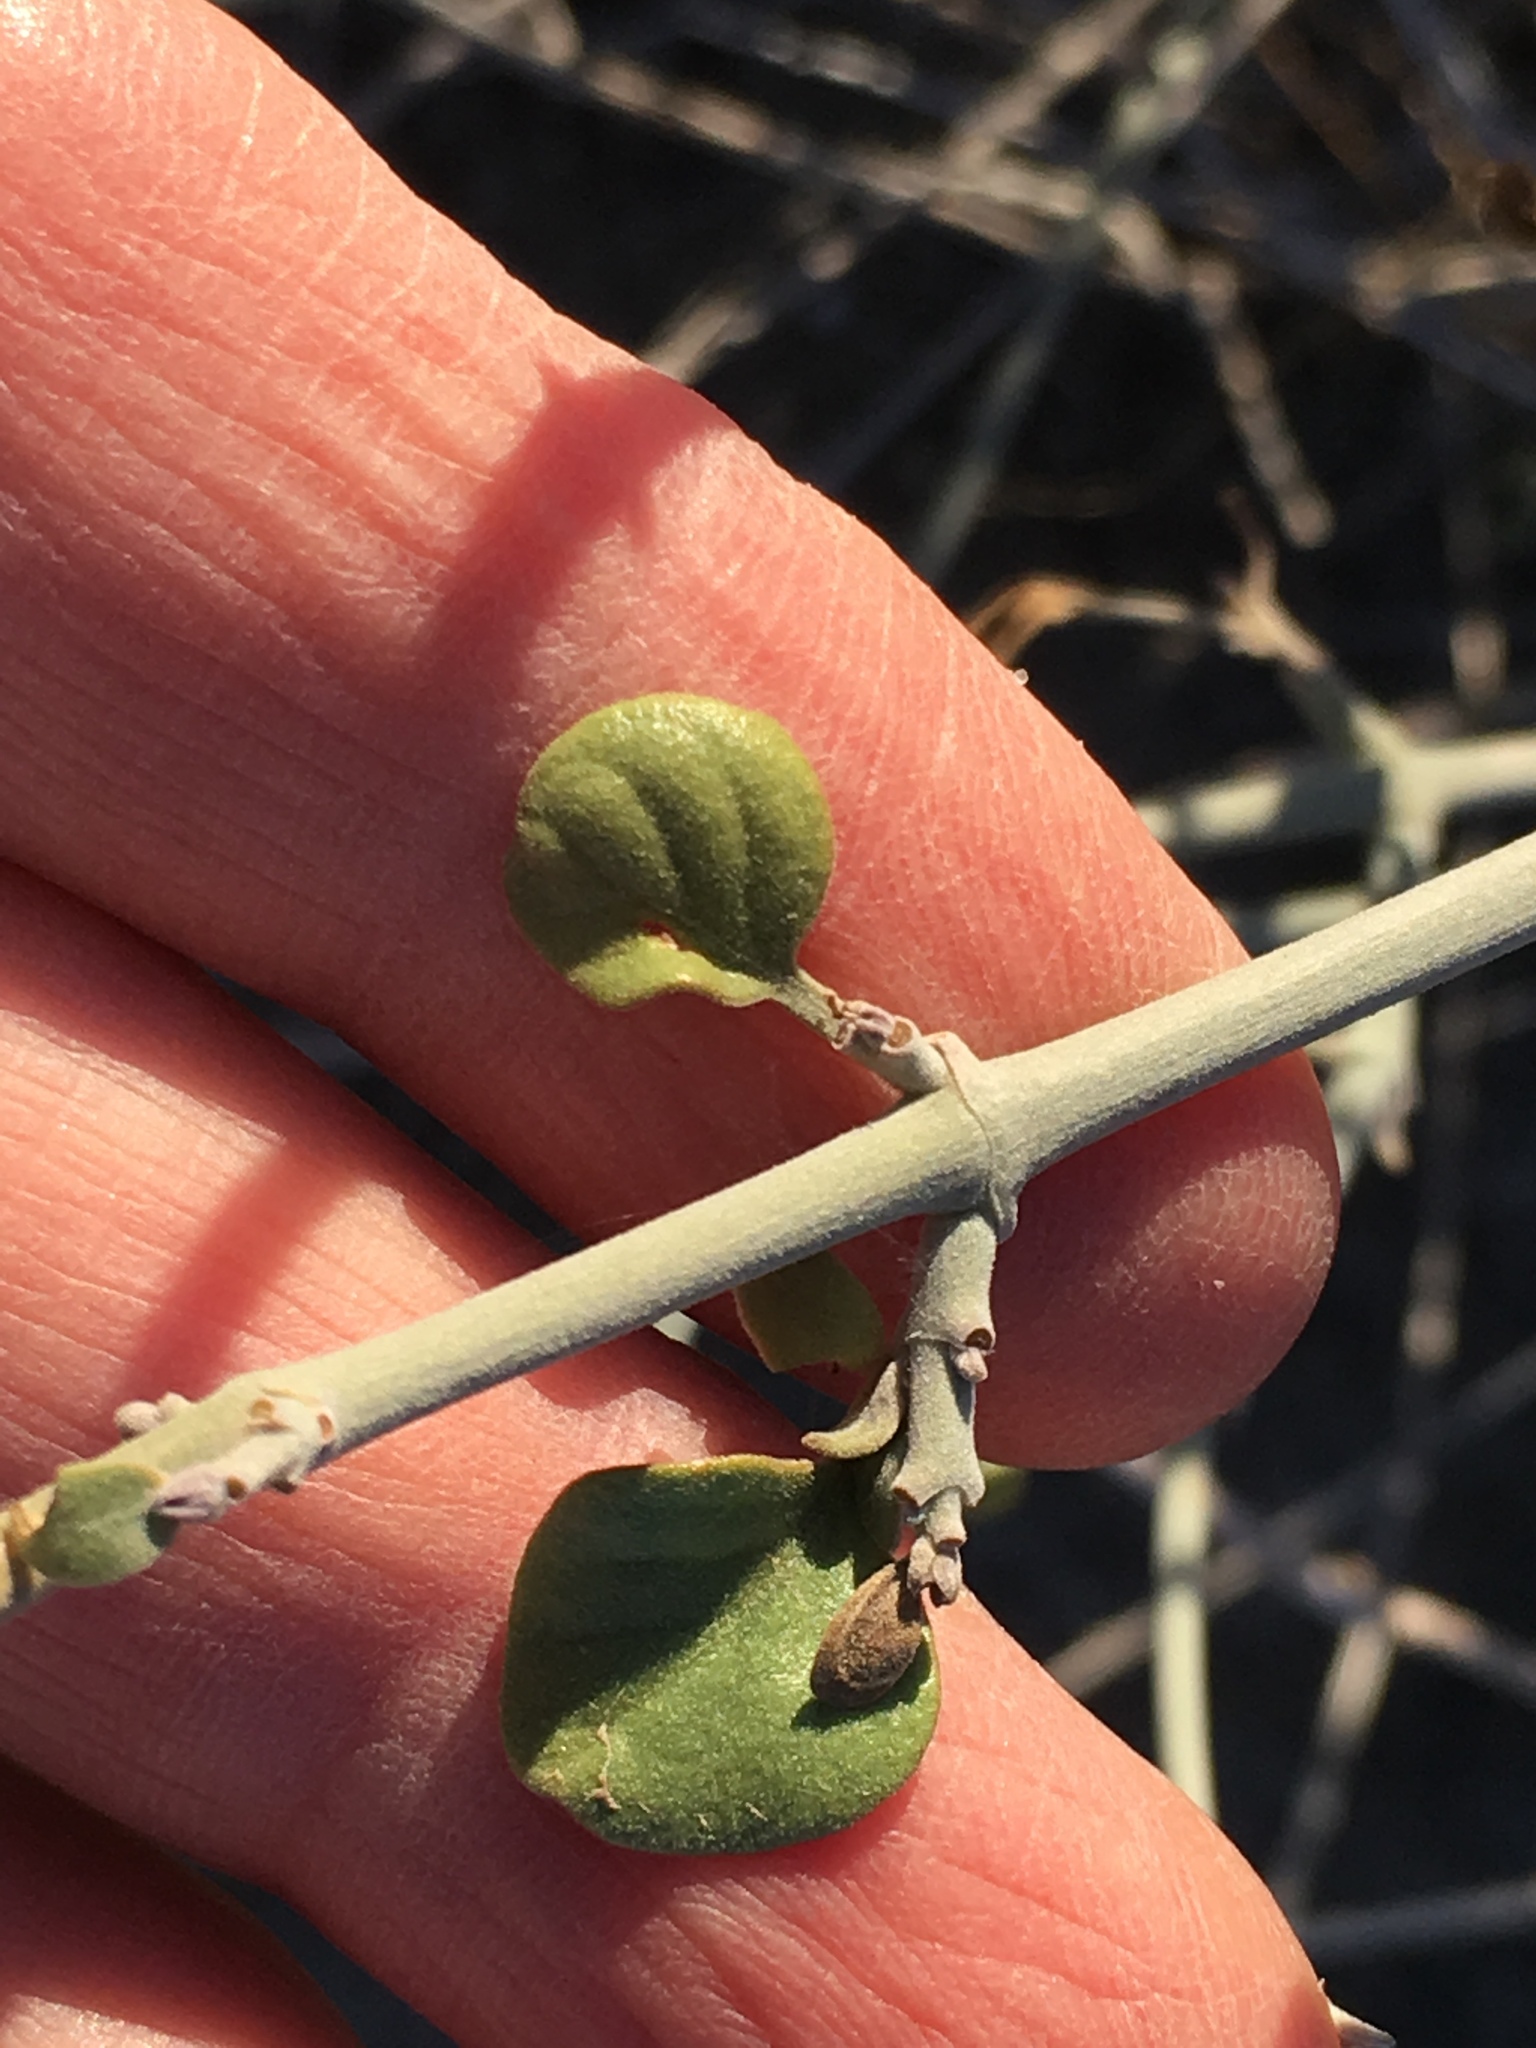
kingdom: Plantae
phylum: Tracheophyta
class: Magnoliopsida
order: Lamiales
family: Acanthaceae
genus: Justicia
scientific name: Justicia californica
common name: Chuparosa-honeysuckle
